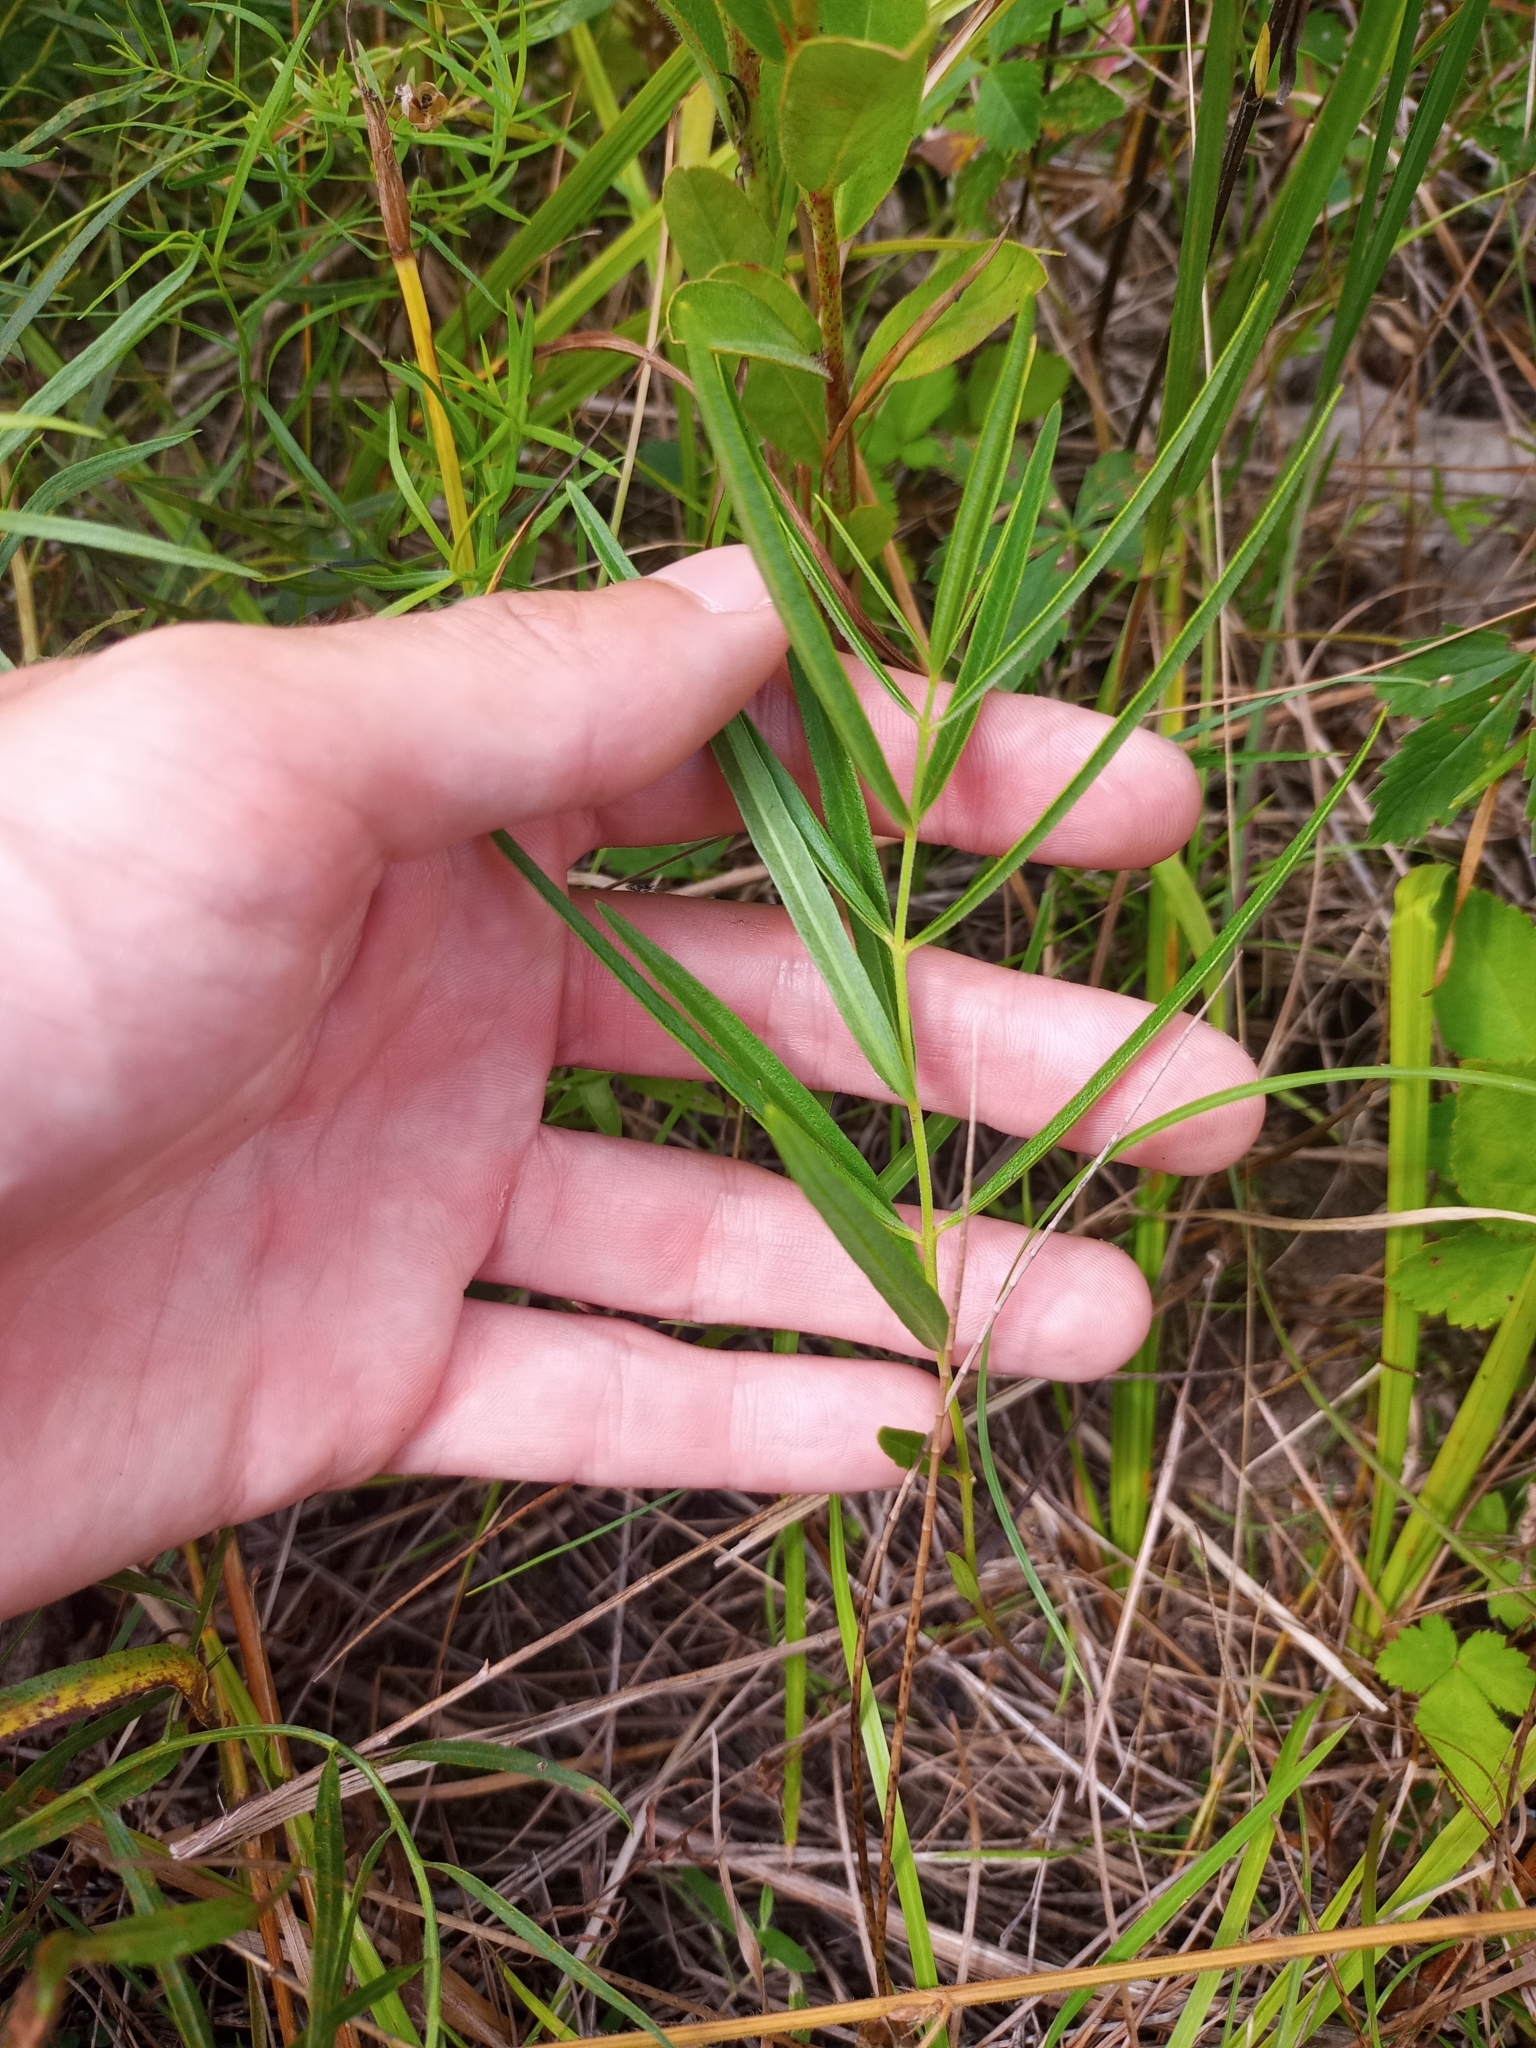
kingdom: Plantae
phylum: Tracheophyta
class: Magnoliopsida
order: Gentianales
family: Apocynaceae
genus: Asclepias
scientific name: Asclepias hirtella
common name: Prairie milkweed
